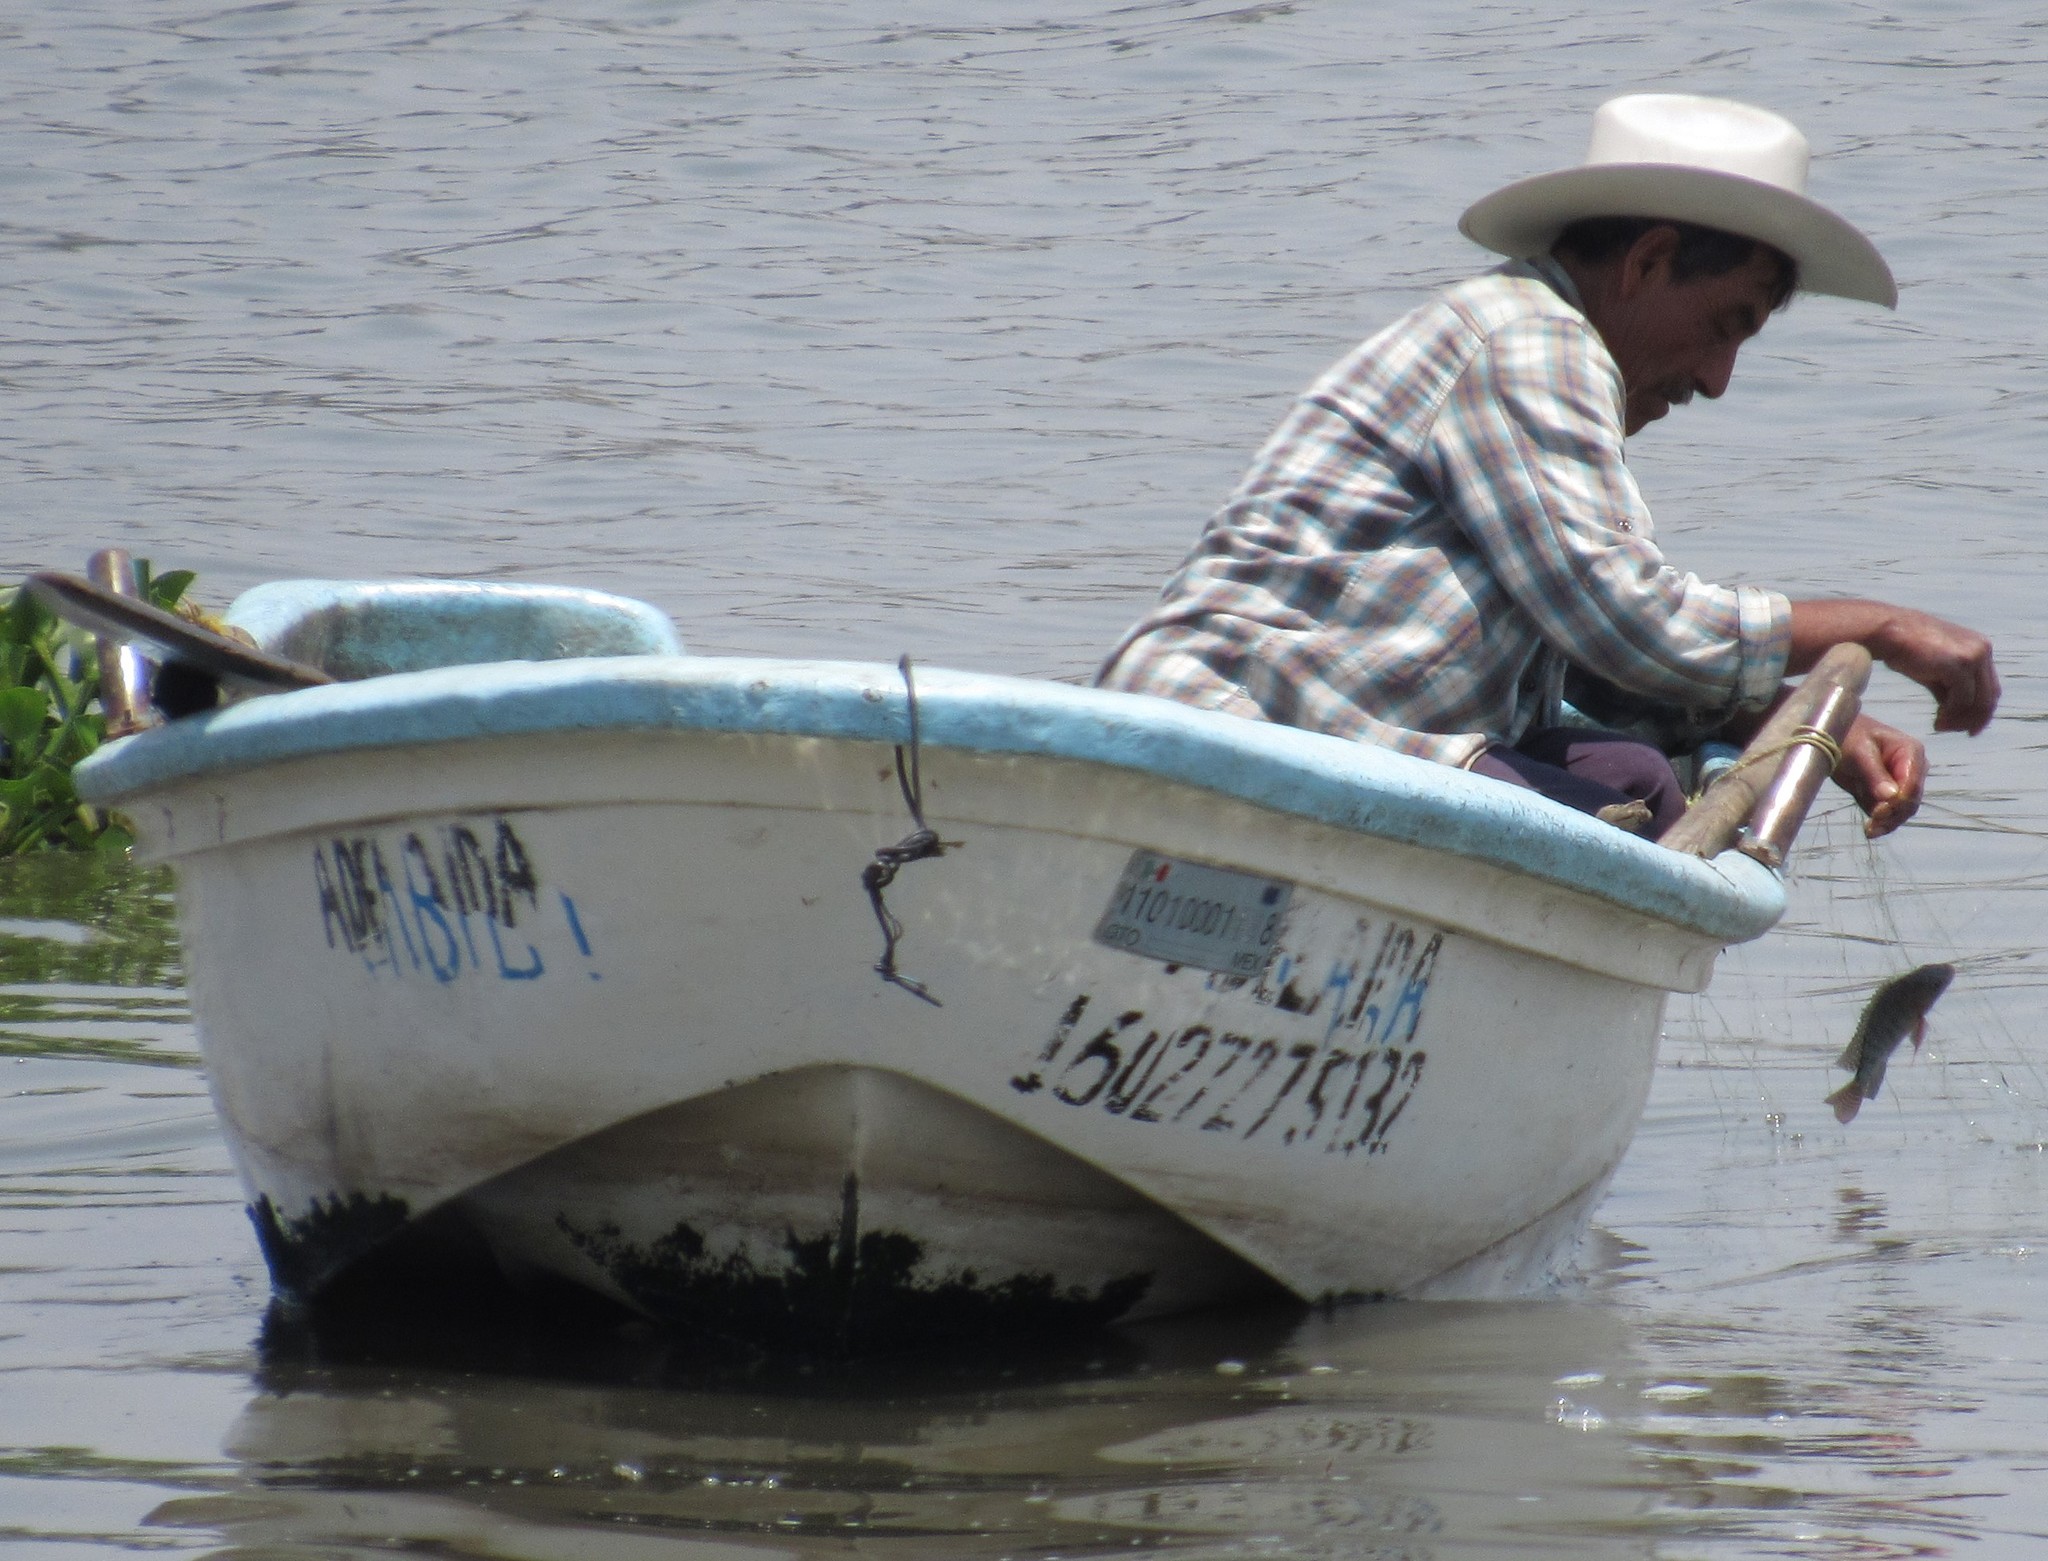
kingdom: Animalia
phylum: Chordata
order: Perciformes
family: Cichlidae
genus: Oreochromis
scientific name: Oreochromis niloticus
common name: Nile tilapia
